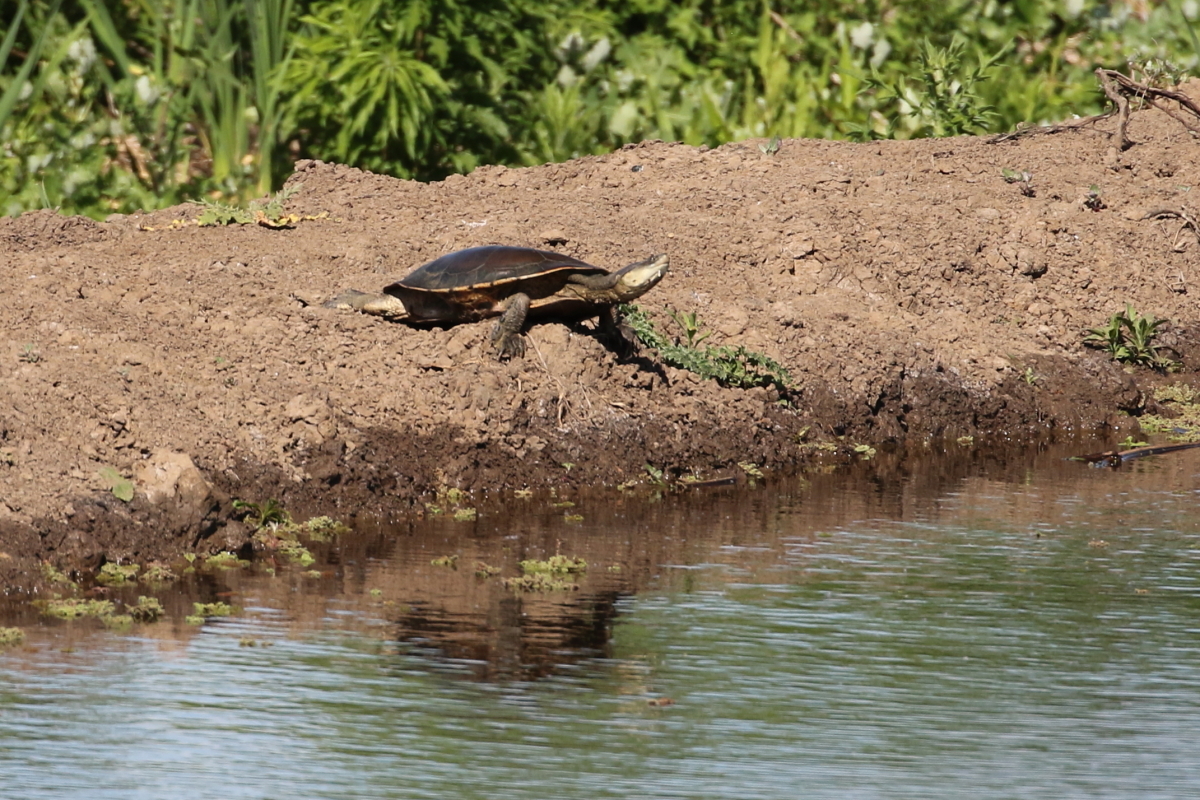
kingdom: Animalia
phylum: Chordata
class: Testudines
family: Chelidae
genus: Phrynops
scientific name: Phrynops hilarii
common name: Side-necked turtle of saint hillaire
